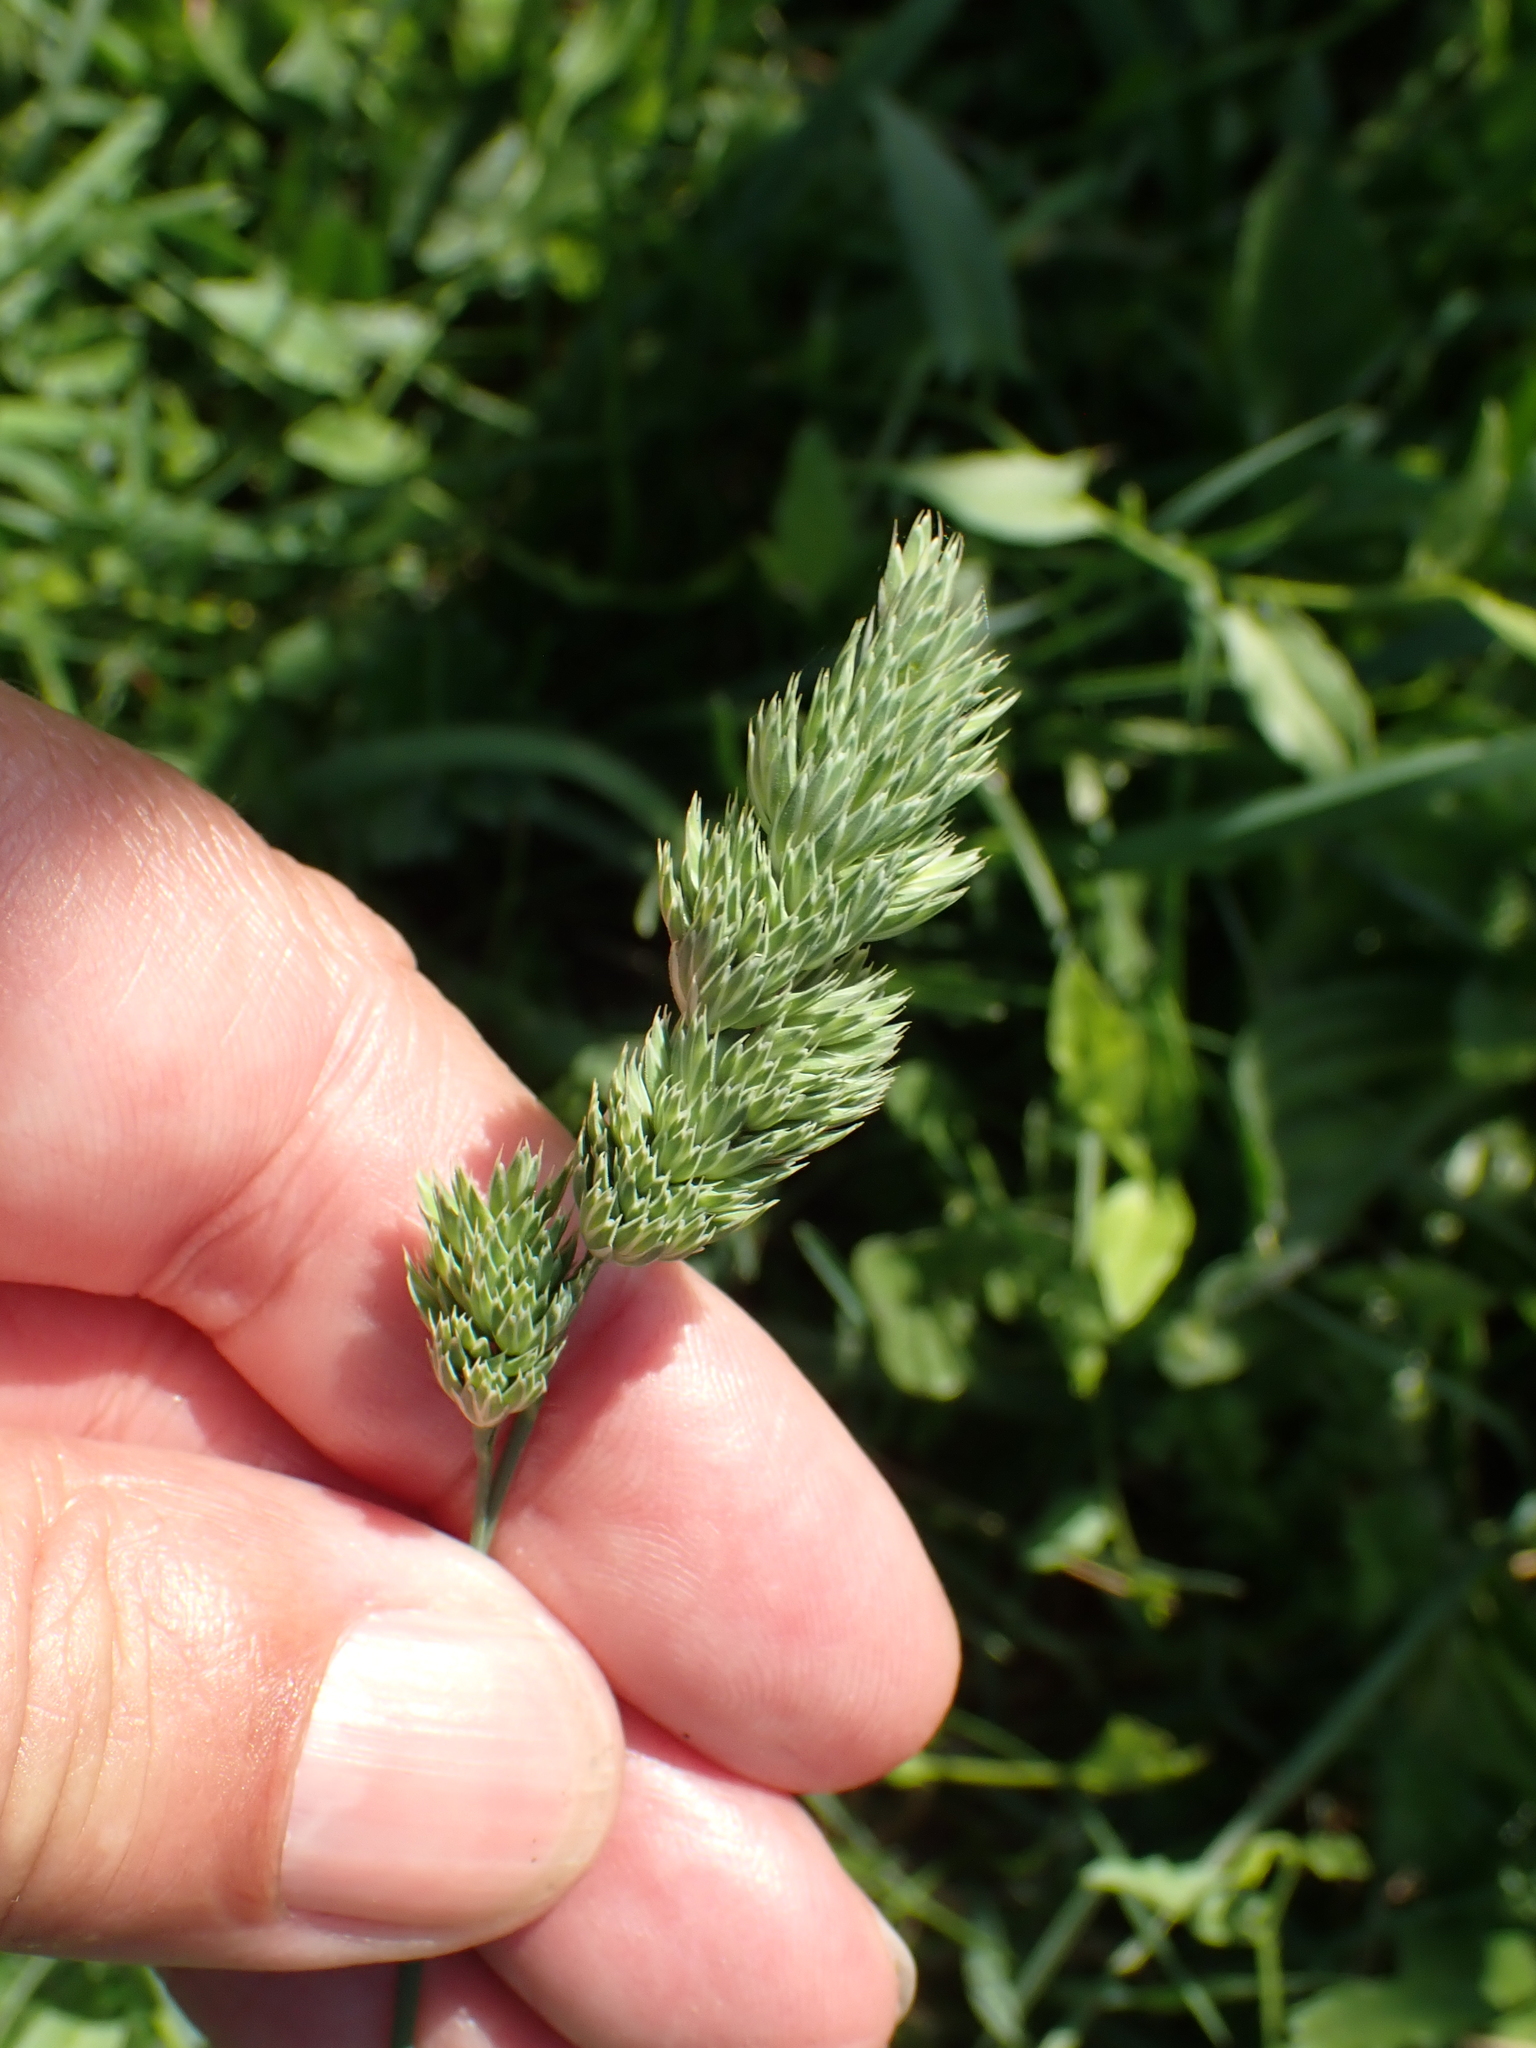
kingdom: Plantae
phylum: Tracheophyta
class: Liliopsida
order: Poales
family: Poaceae
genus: Dactylis
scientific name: Dactylis glomerata
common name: Orchardgrass
